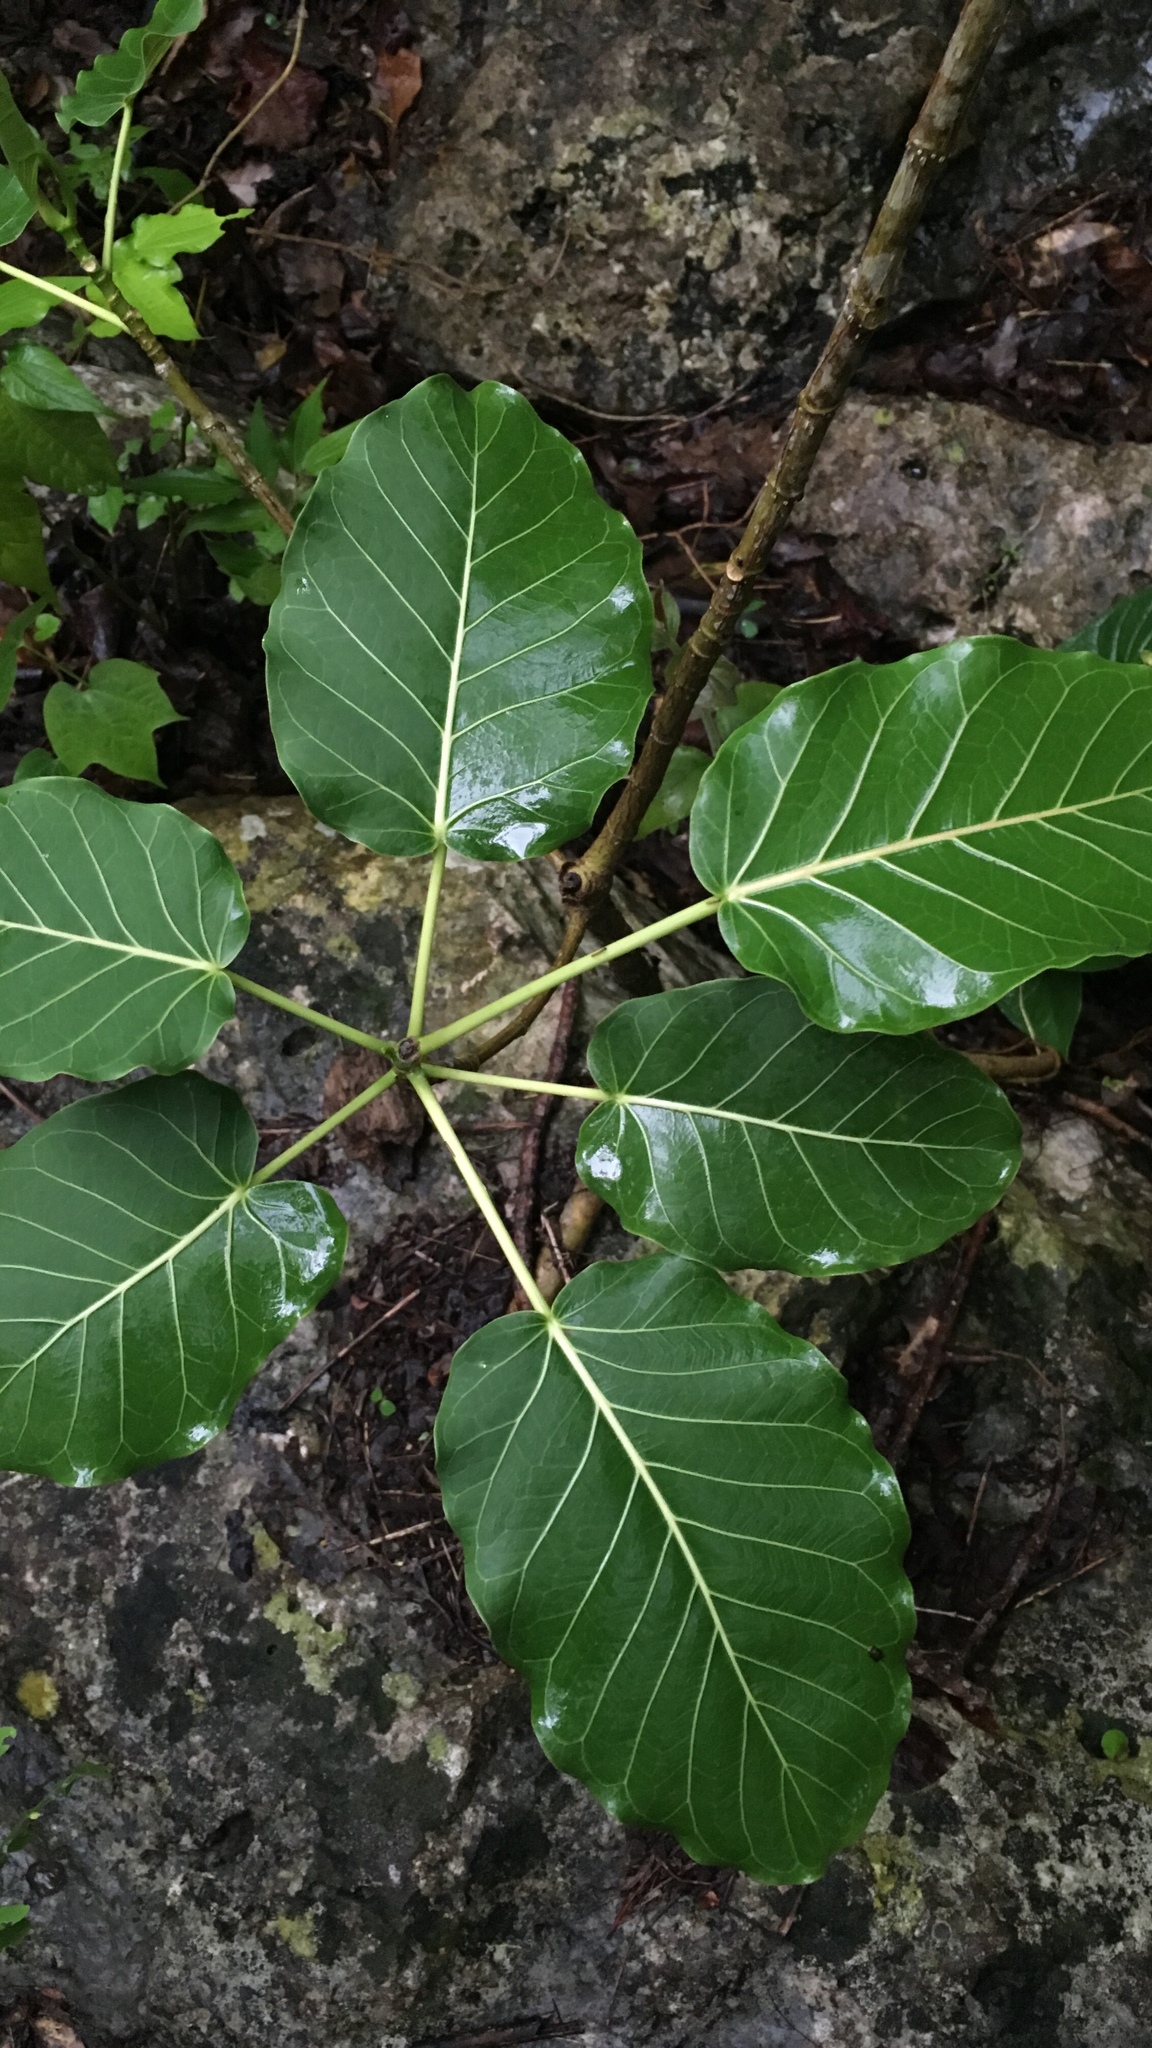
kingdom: Plantae
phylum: Tracheophyta
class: Magnoliopsida
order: Rosales
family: Moraceae
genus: Ficus
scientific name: Ficus petiolaris
